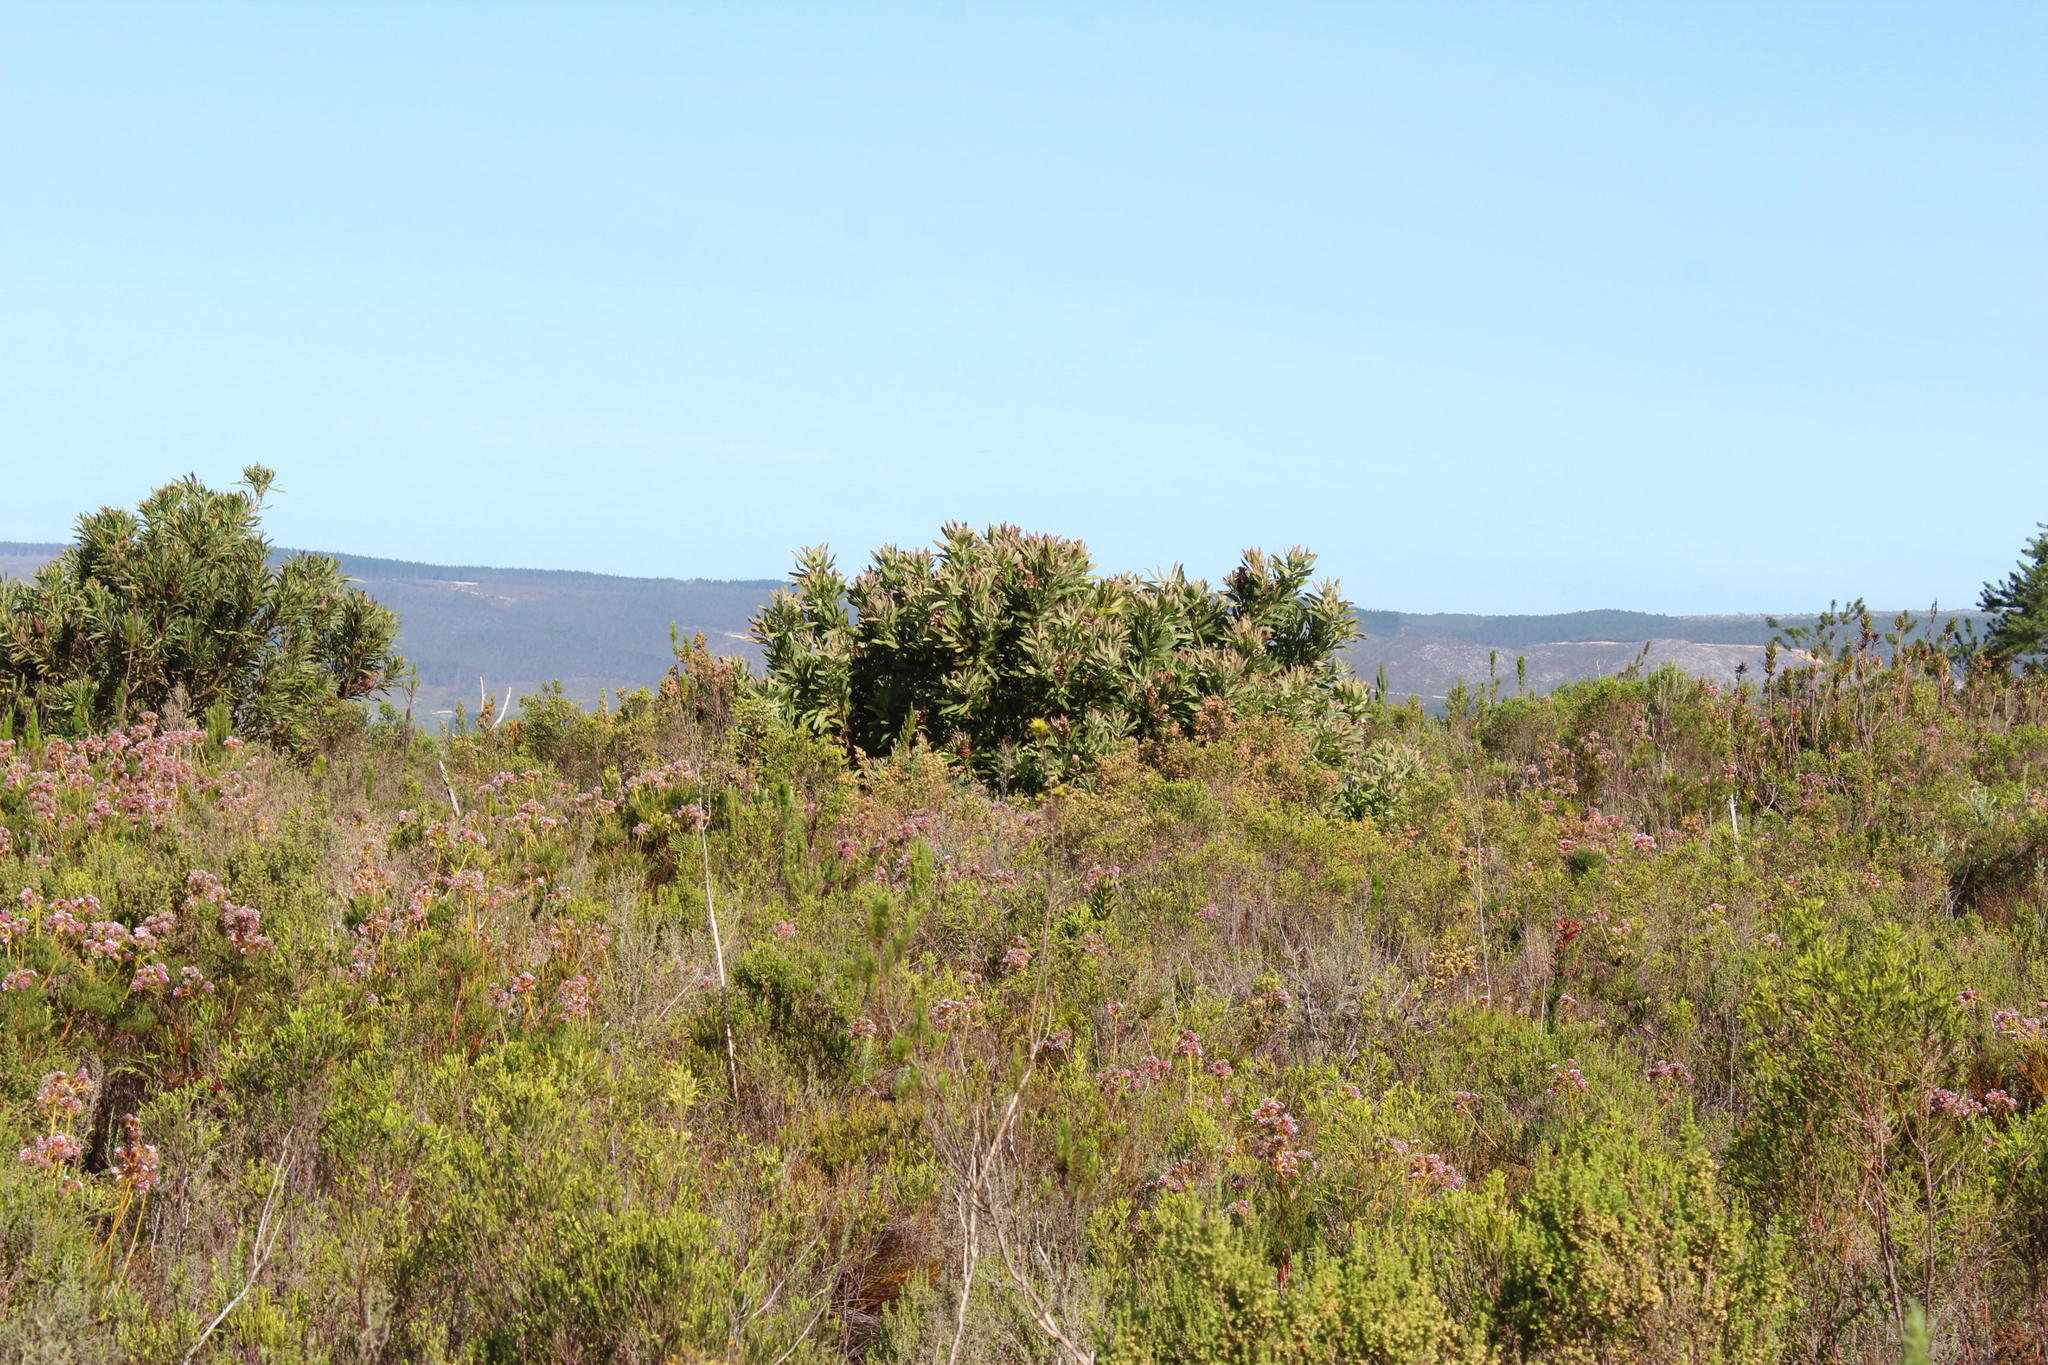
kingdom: Plantae
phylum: Tracheophyta
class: Magnoliopsida
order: Proteales
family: Proteaceae
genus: Protea
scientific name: Protea longifolia
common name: Long-leaf sugarbush
